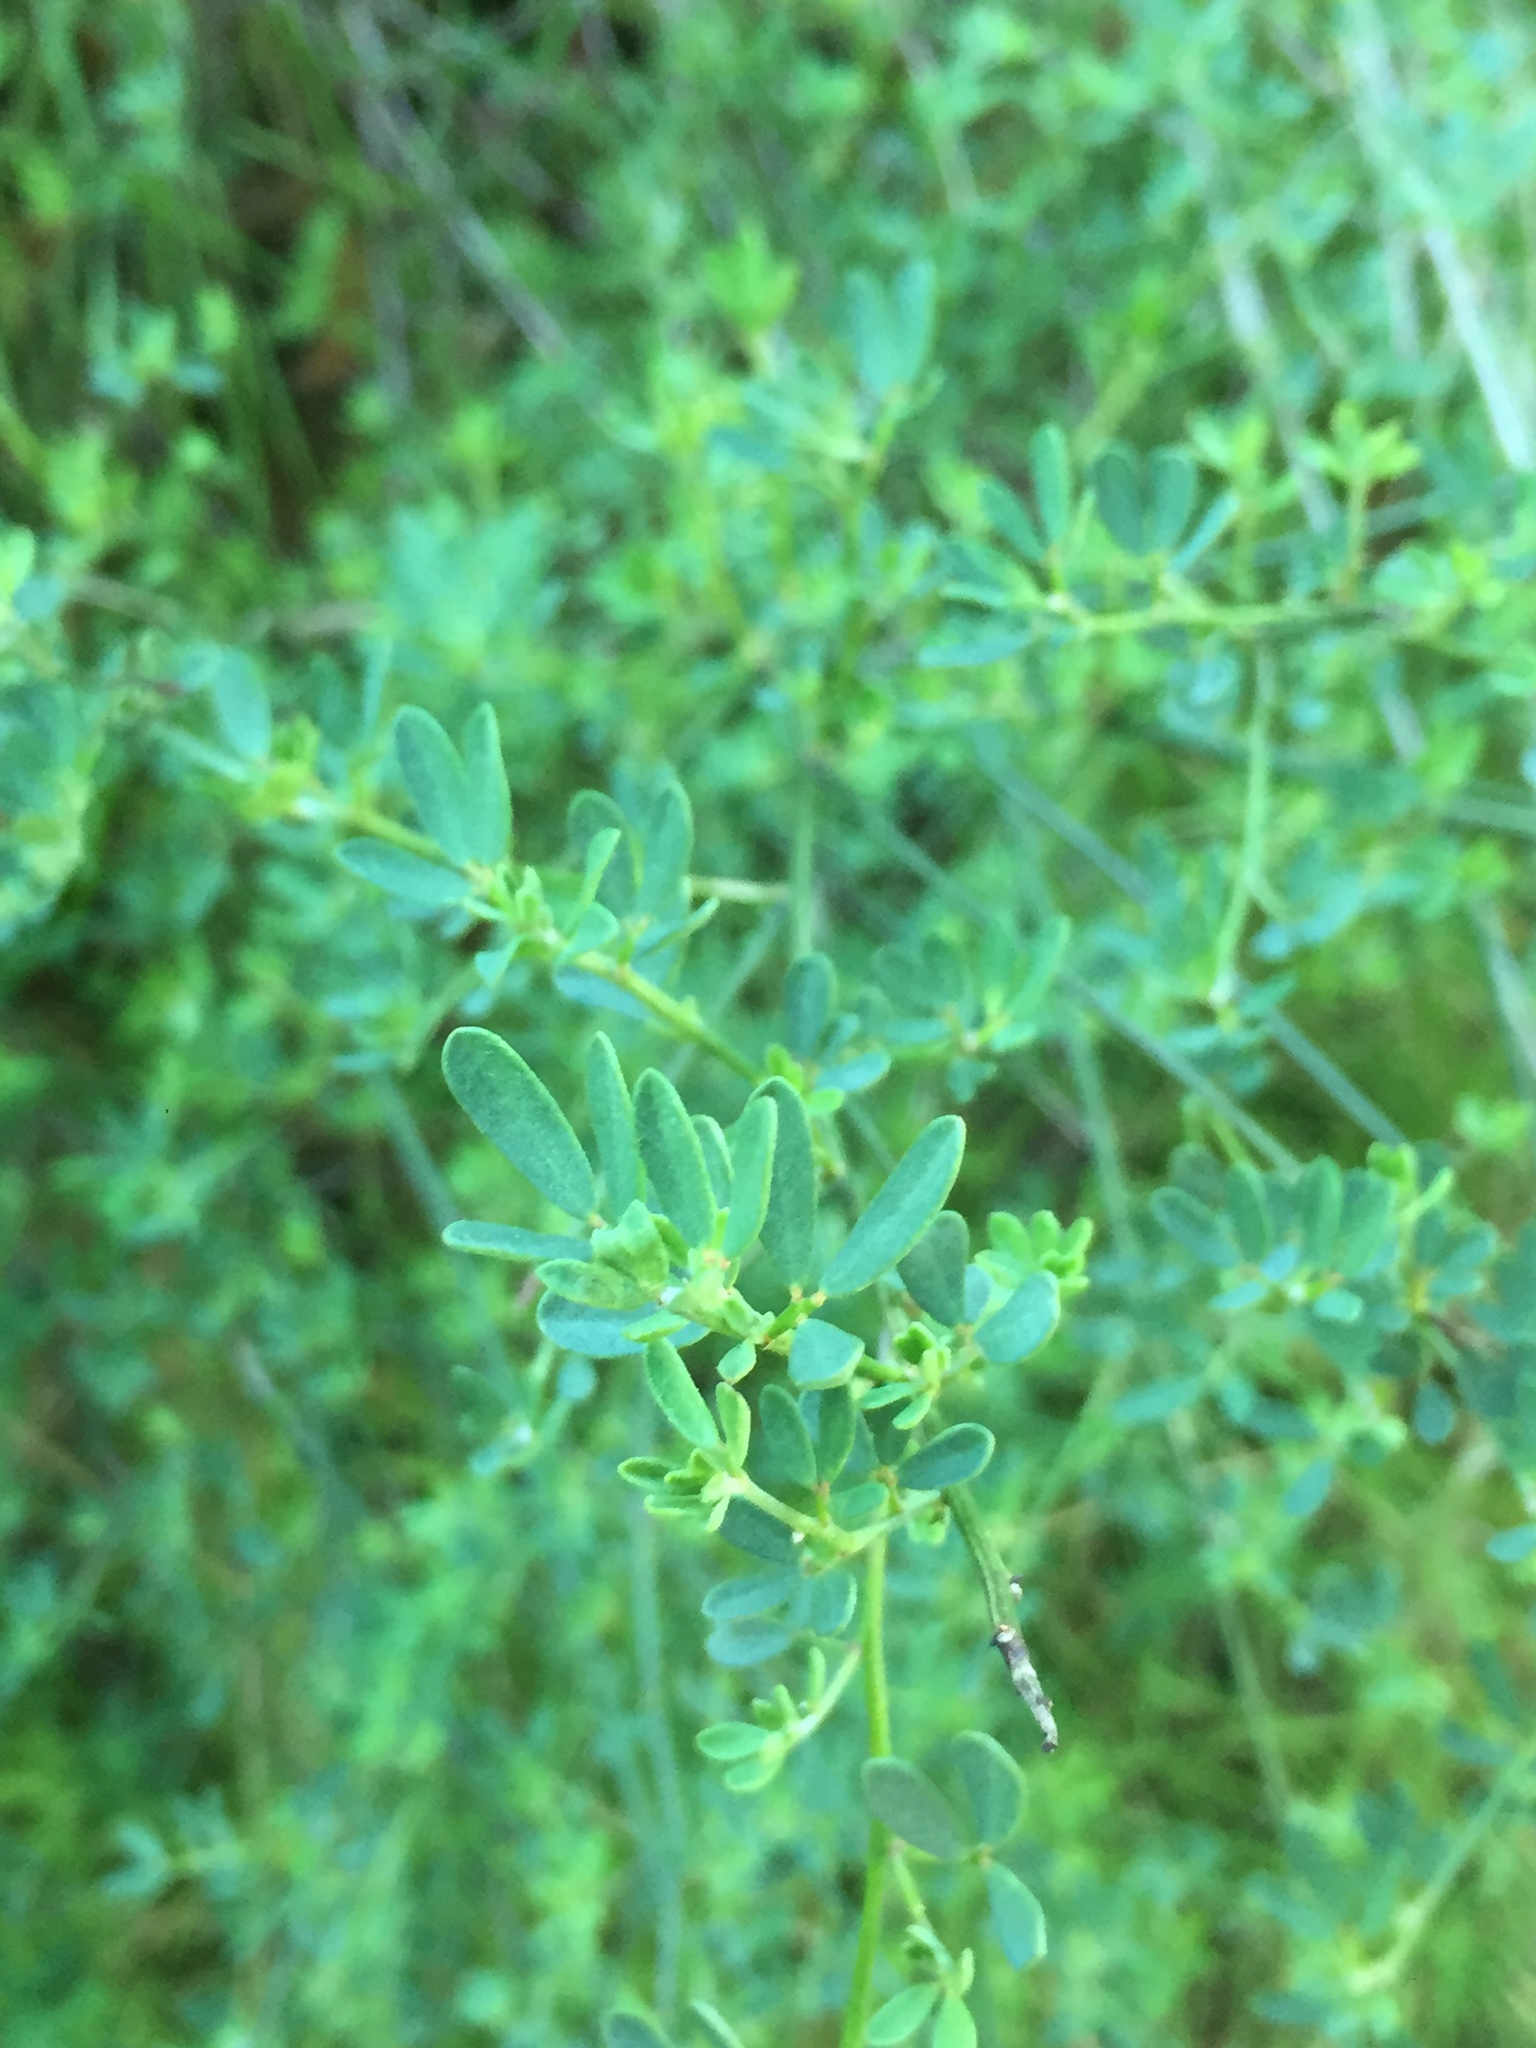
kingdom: Plantae
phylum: Tracheophyta
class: Magnoliopsida
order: Fabales
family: Fabaceae
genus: Acmispon
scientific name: Acmispon glaber
